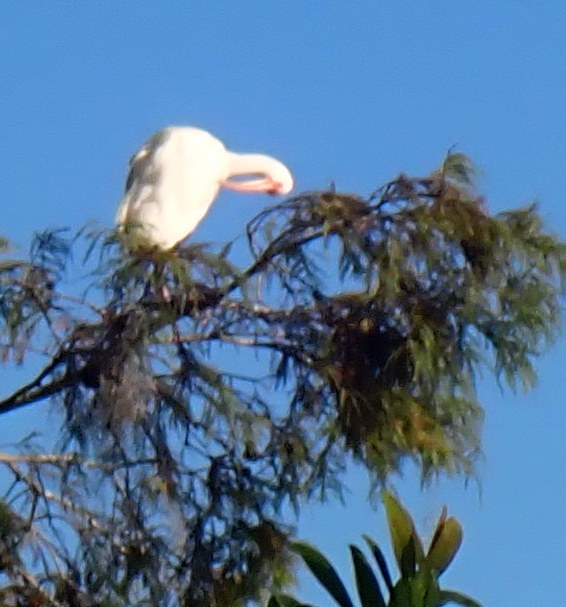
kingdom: Animalia
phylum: Chordata
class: Aves
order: Pelecaniformes
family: Threskiornithidae
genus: Eudocimus
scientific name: Eudocimus albus
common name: White ibis
